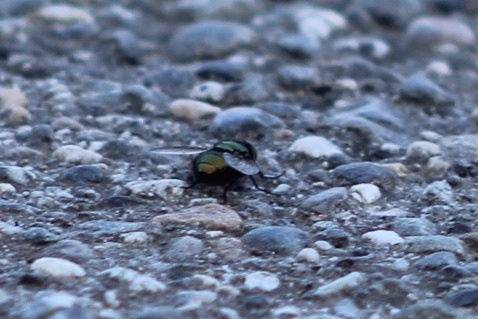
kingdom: Animalia
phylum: Arthropoda
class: Insecta
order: Diptera
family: Calliphoridae
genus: Lucilia
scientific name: Lucilia sericata
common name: Blow fly
